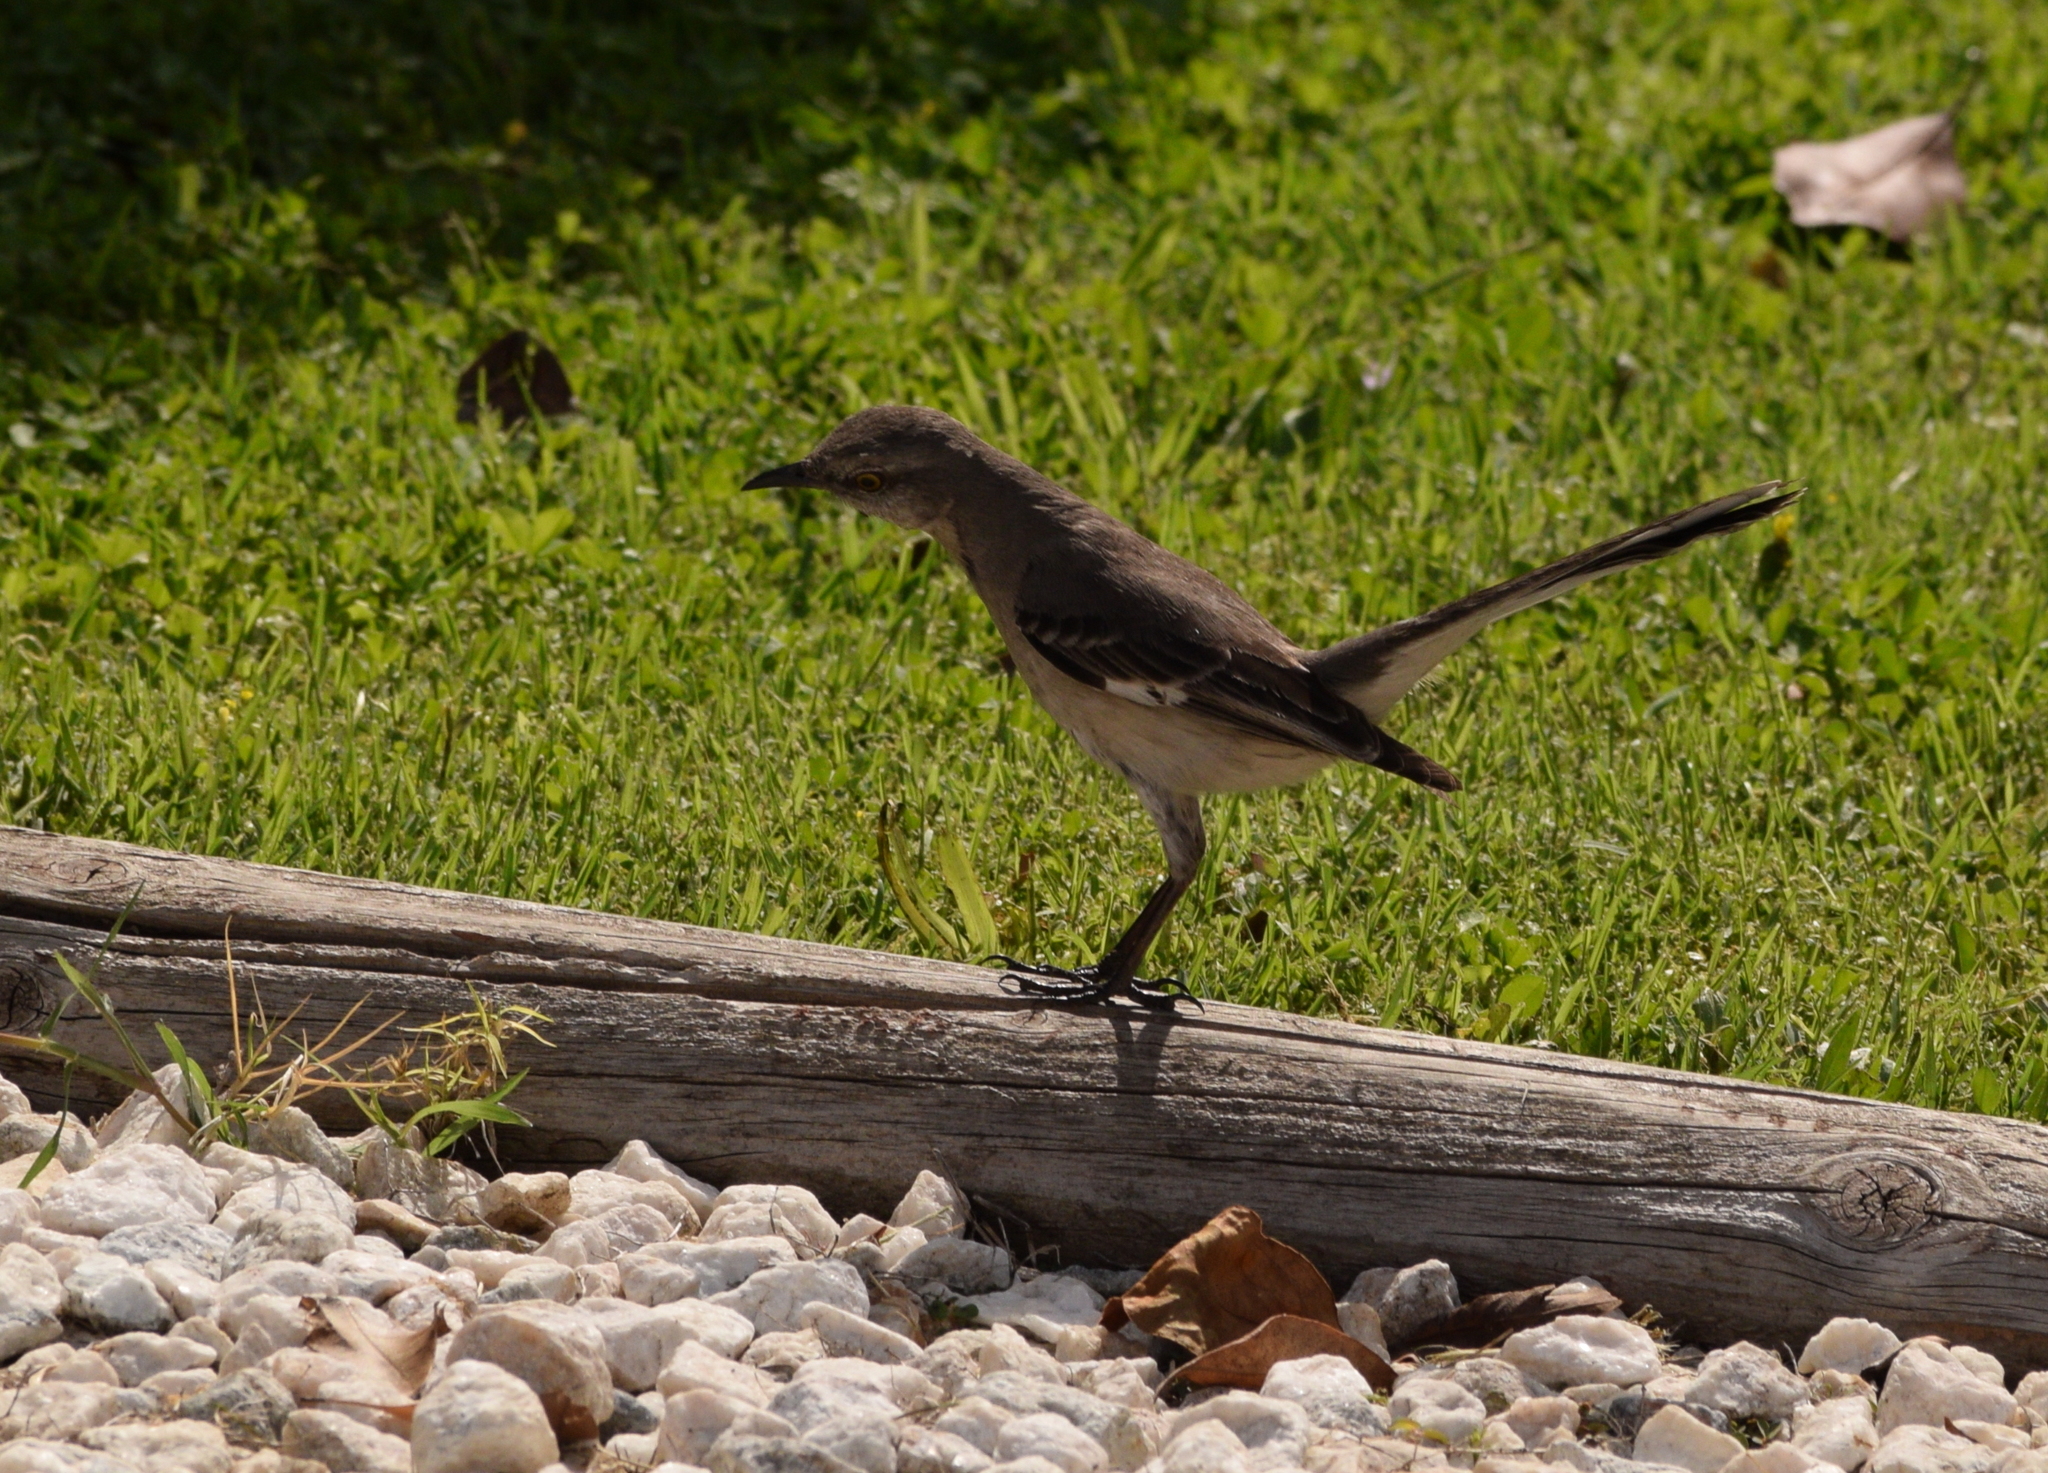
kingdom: Animalia
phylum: Chordata
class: Aves
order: Passeriformes
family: Mimidae
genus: Mimus
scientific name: Mimus polyglottos
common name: Northern mockingbird
